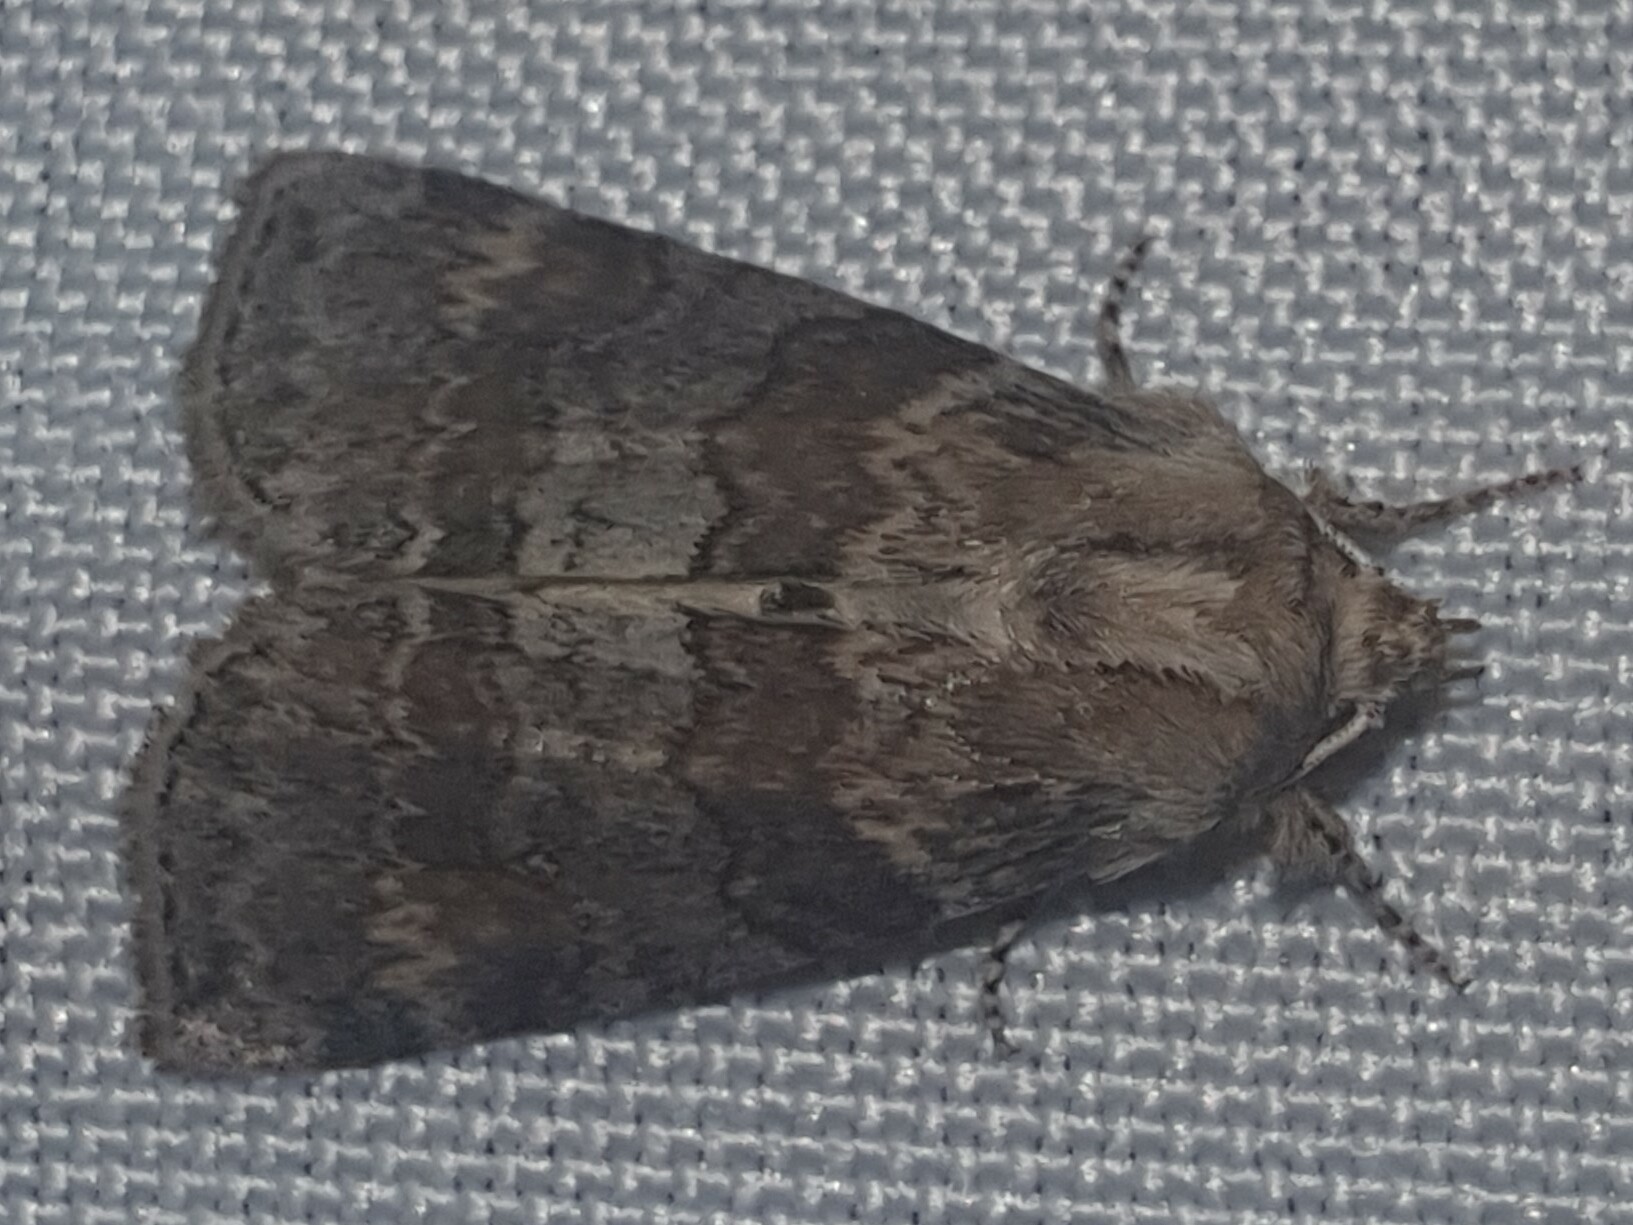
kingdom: Animalia
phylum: Arthropoda
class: Insecta
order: Lepidoptera
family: Drepanidae
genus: Cymatophorina
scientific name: Cymatophorina diluta
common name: Oak lutestring
